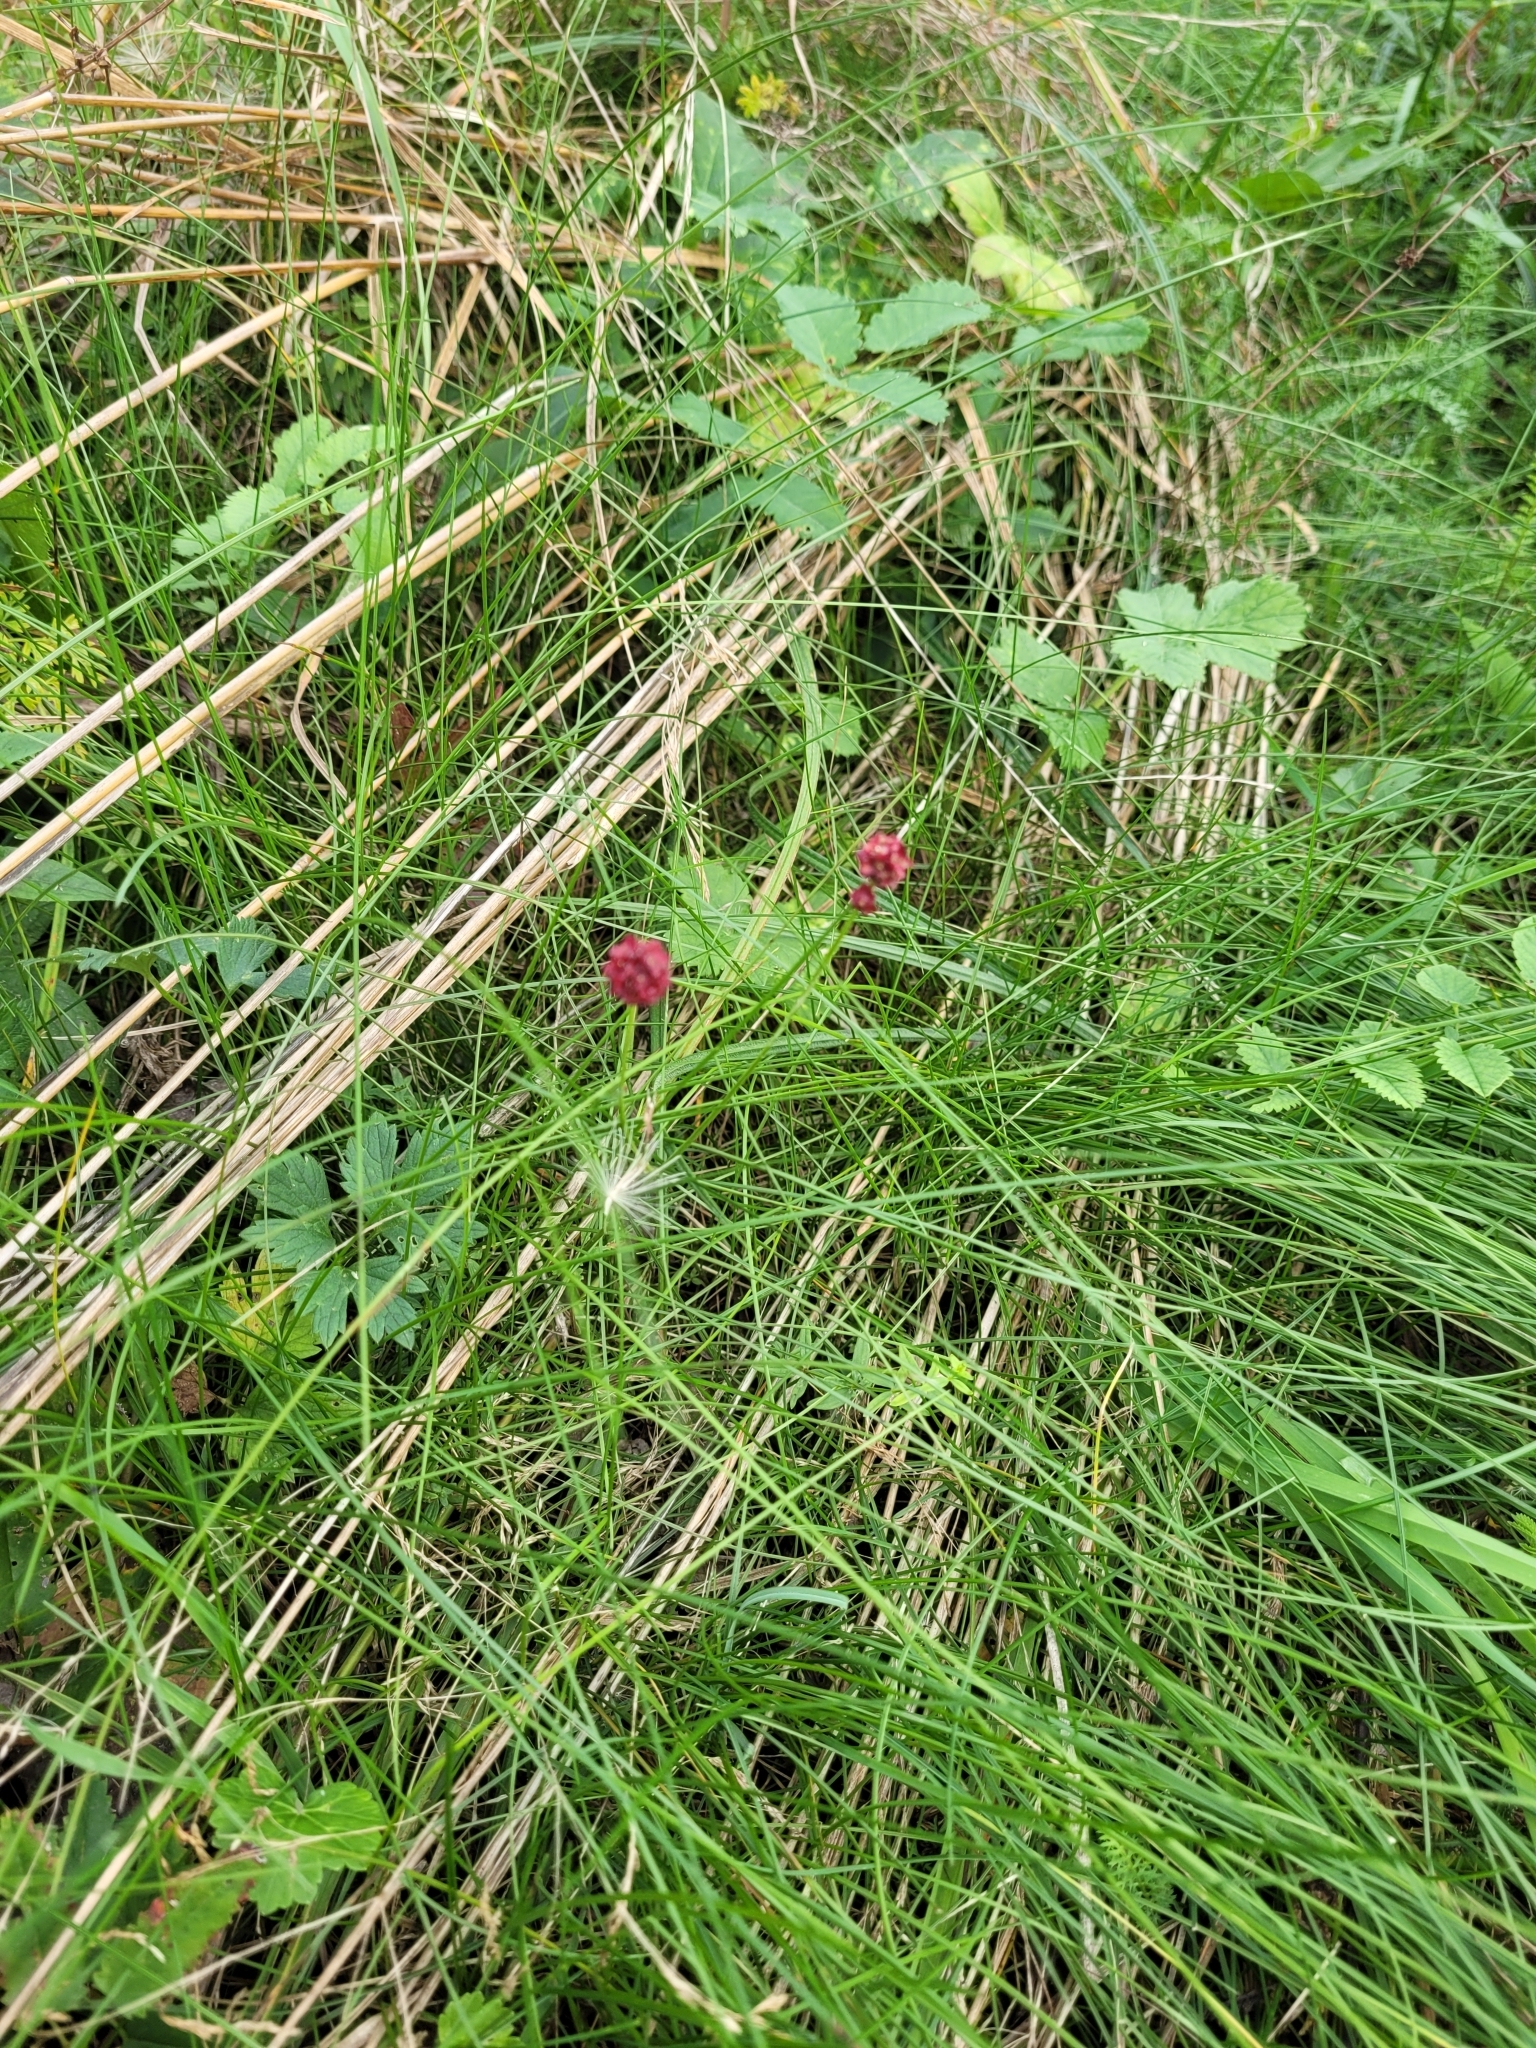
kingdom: Plantae
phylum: Tracheophyta
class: Magnoliopsida
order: Rosales
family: Rosaceae
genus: Sanguisorba
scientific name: Sanguisorba officinalis
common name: Great burnet
